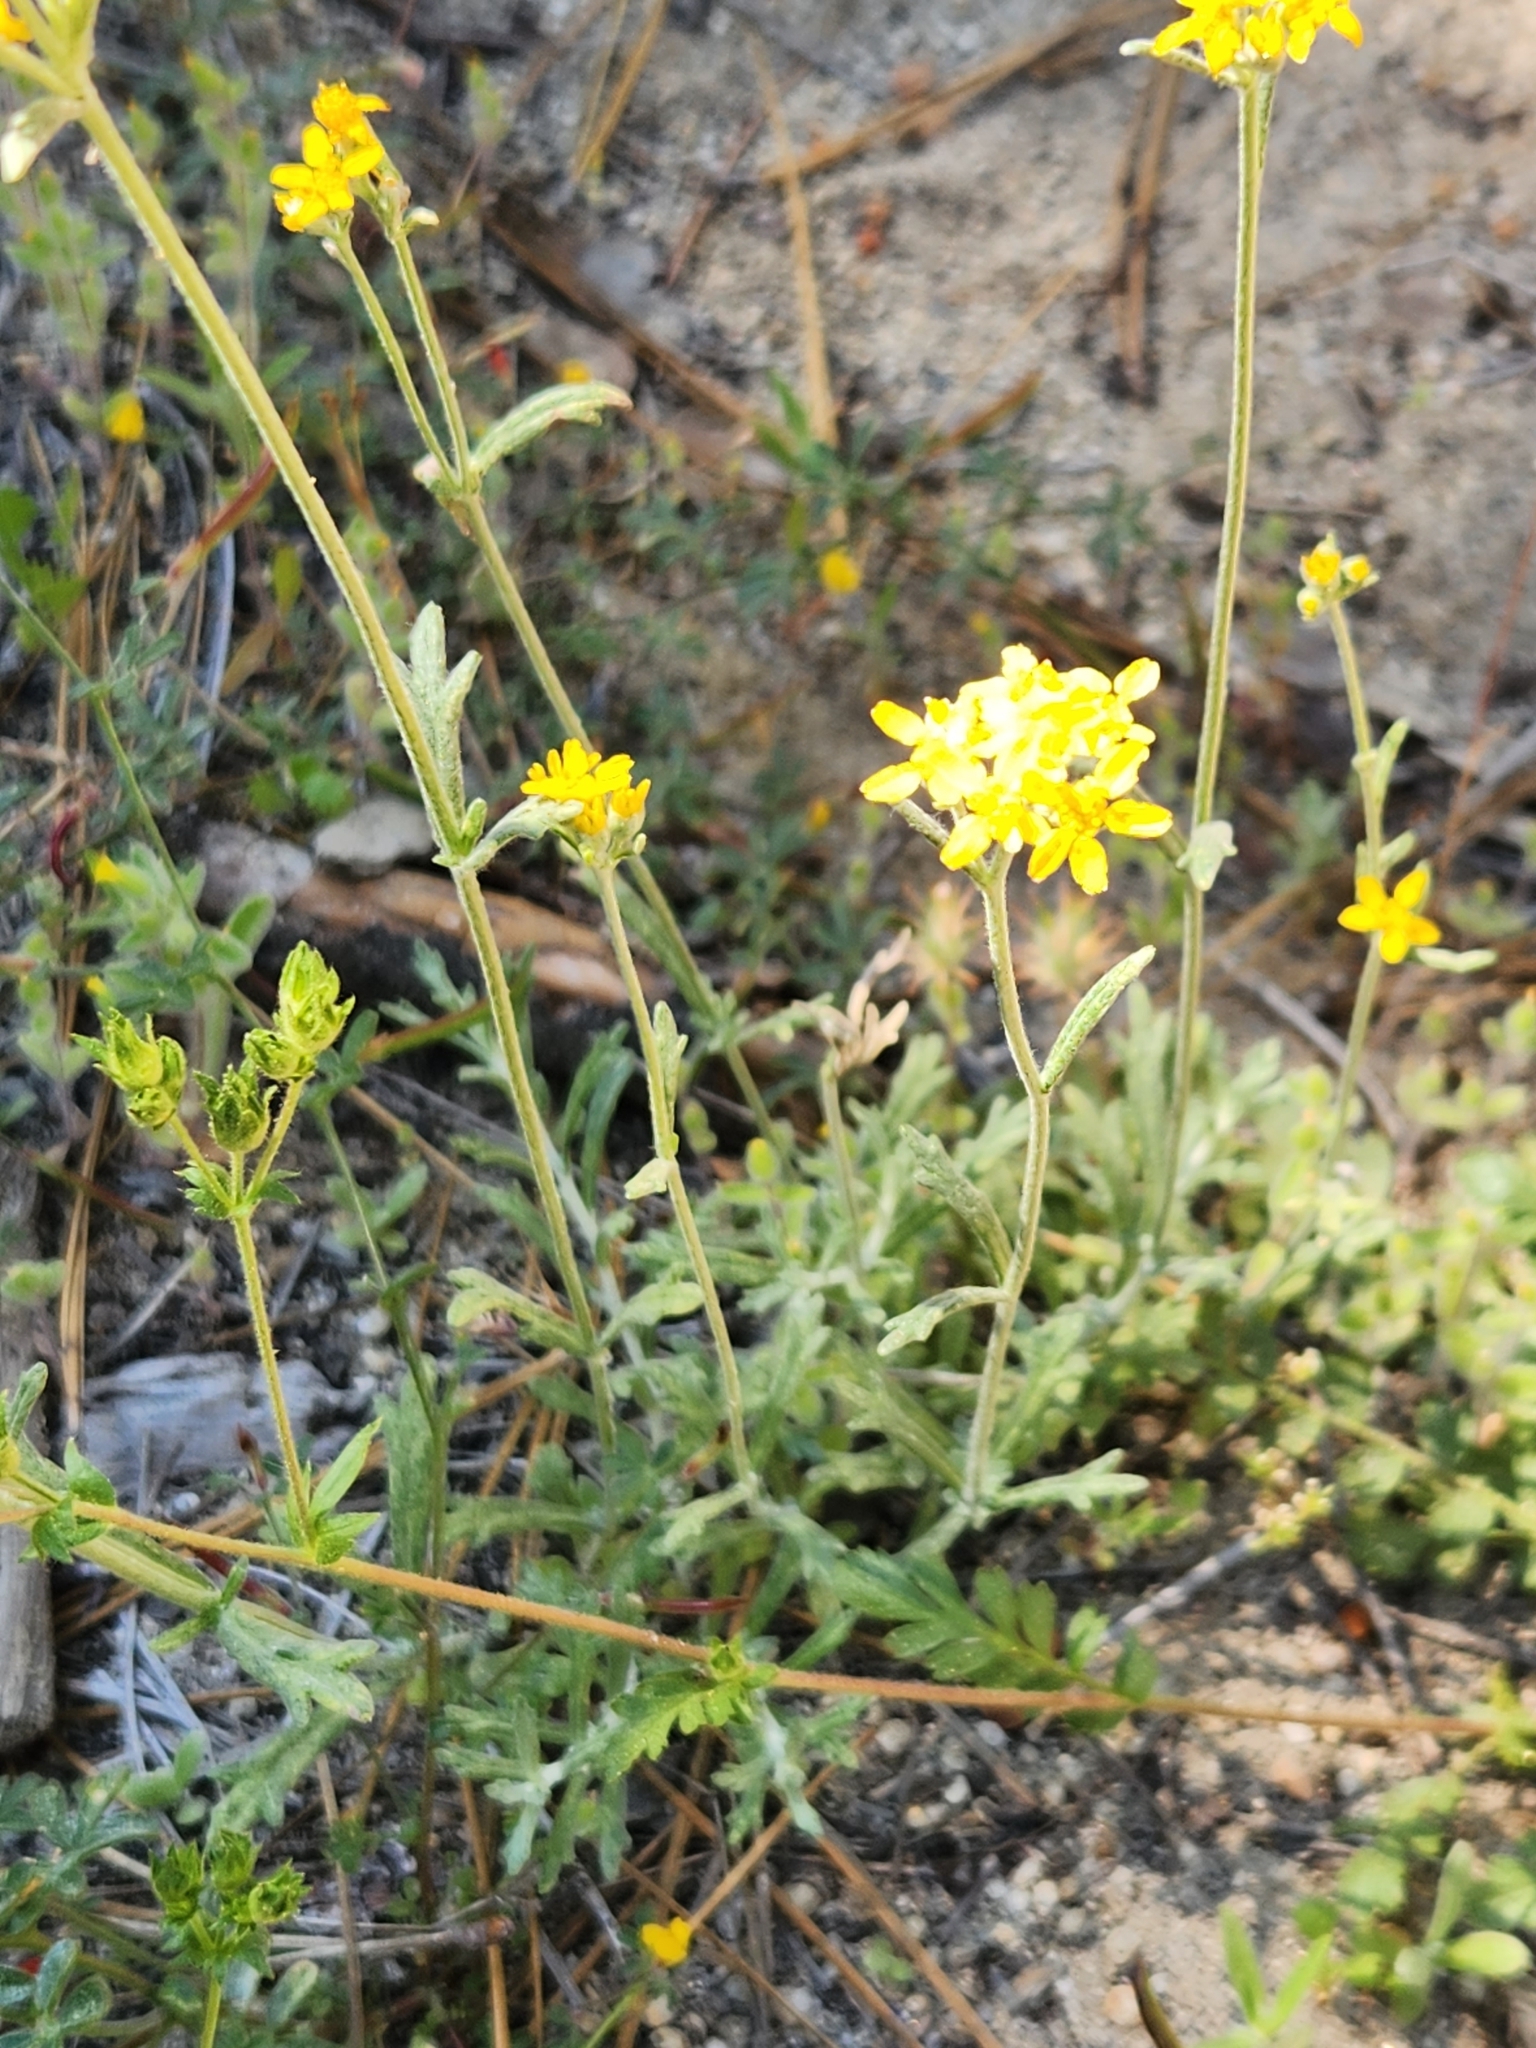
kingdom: Plantae
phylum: Tracheophyta
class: Magnoliopsida
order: Asterales
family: Asteraceae
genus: Eriophyllum
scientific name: Eriophyllum confertiflorum
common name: Golden-yarrow
